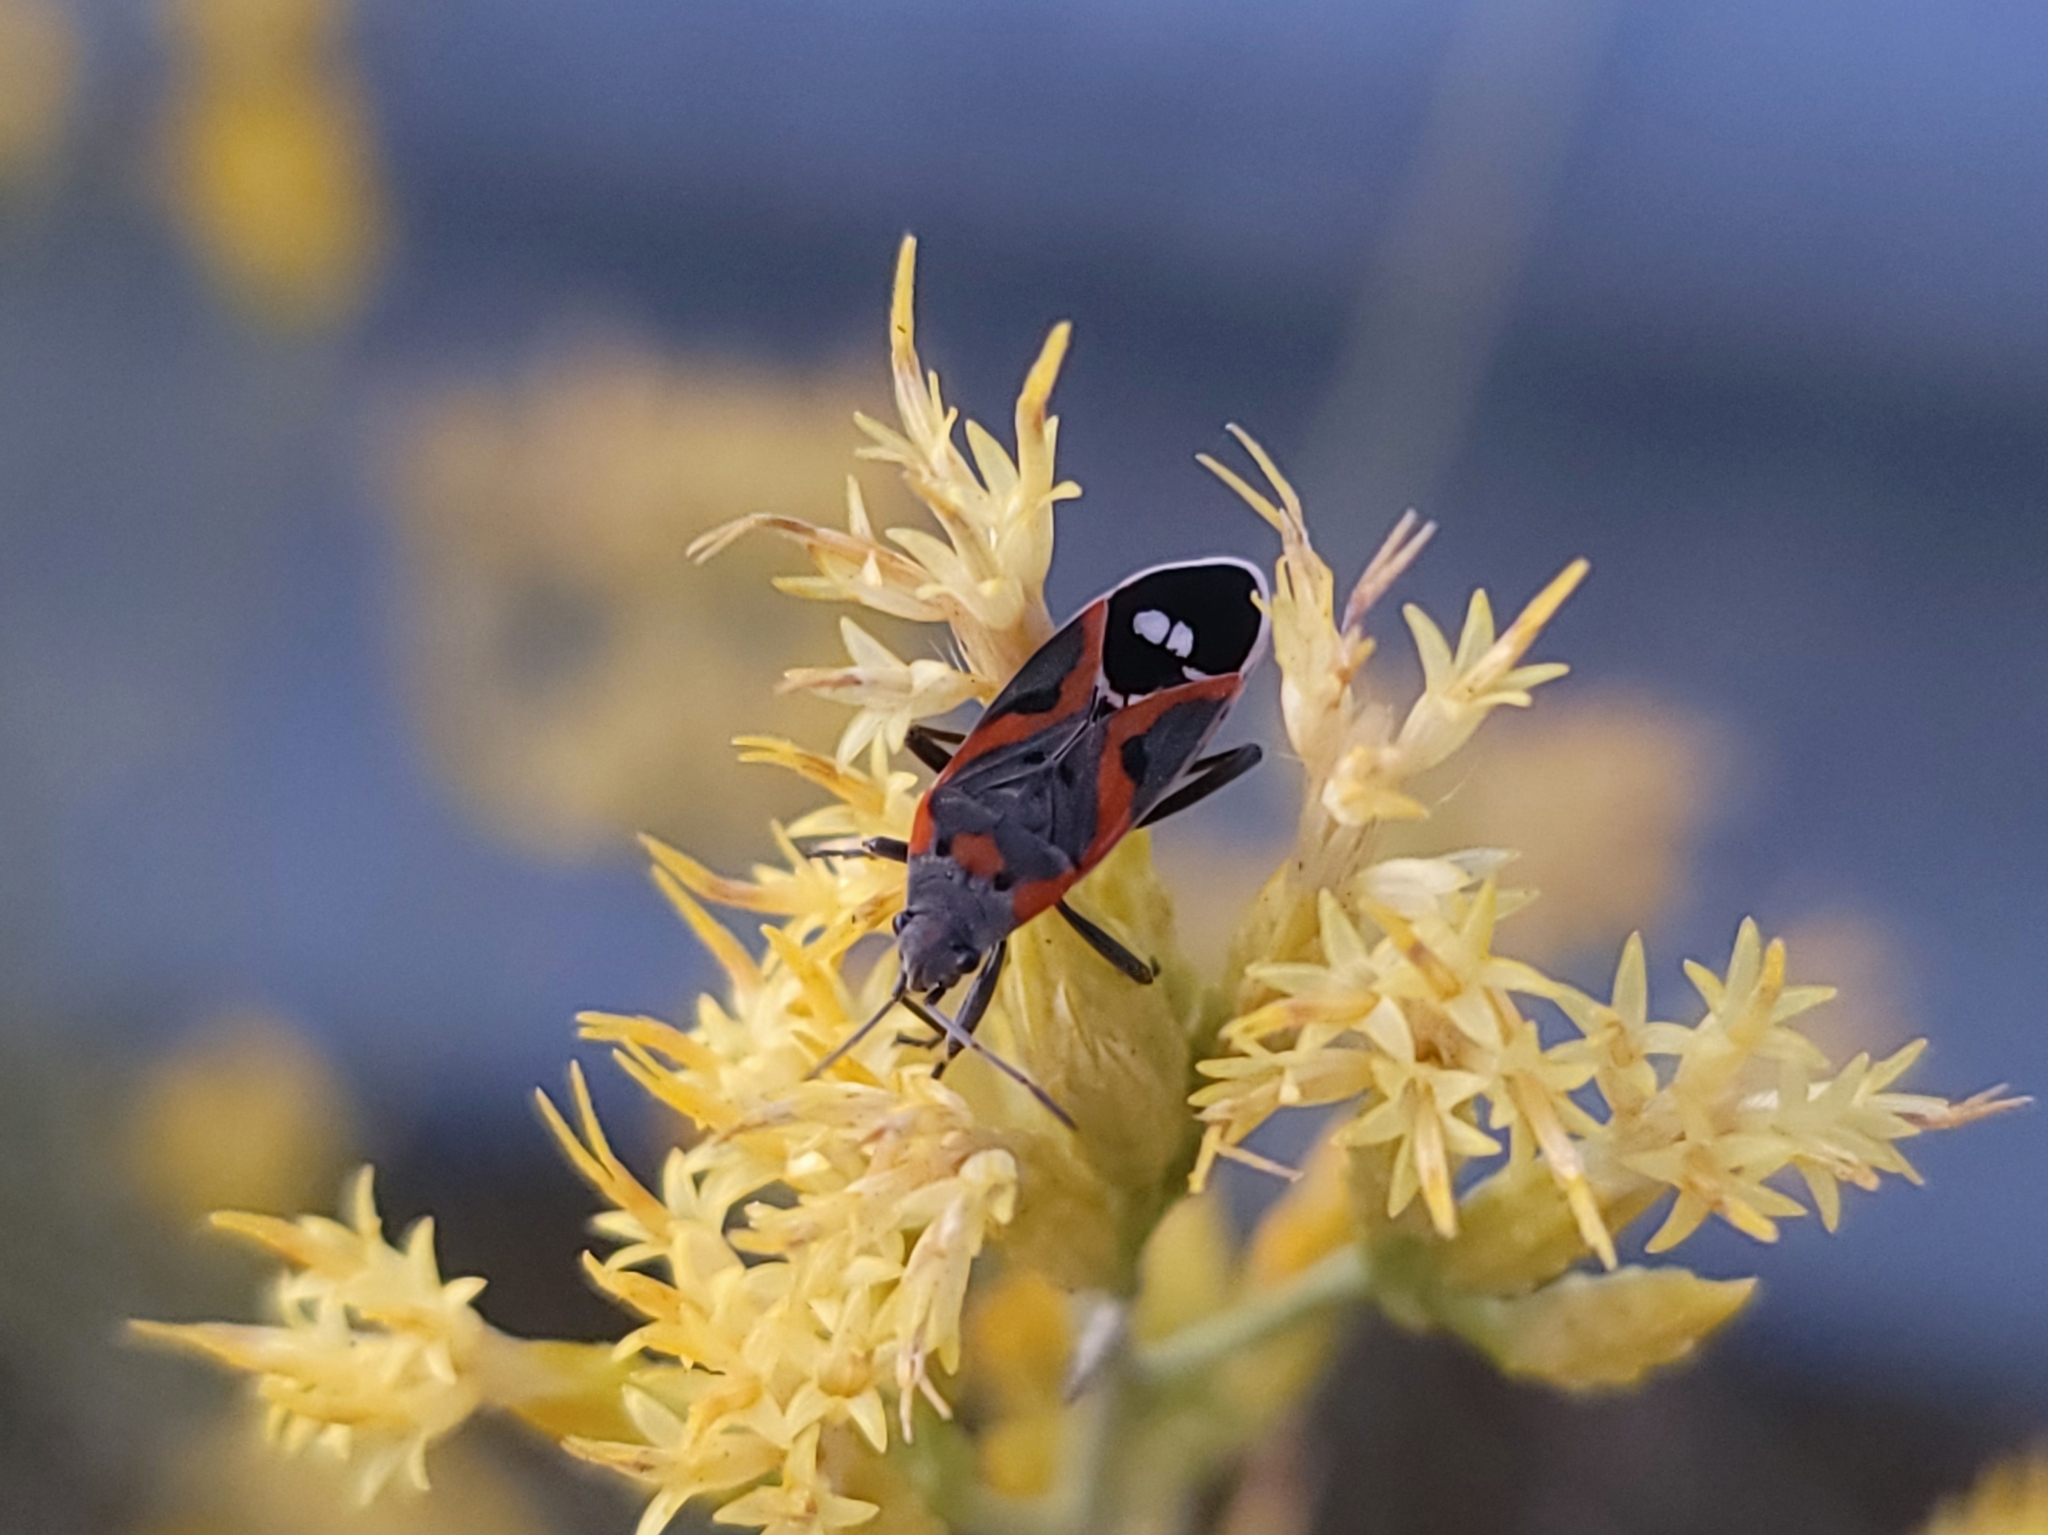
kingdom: Animalia
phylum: Arthropoda
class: Insecta
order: Hemiptera
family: Lygaeidae
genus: Lygaeus
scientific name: Lygaeus kalmii
